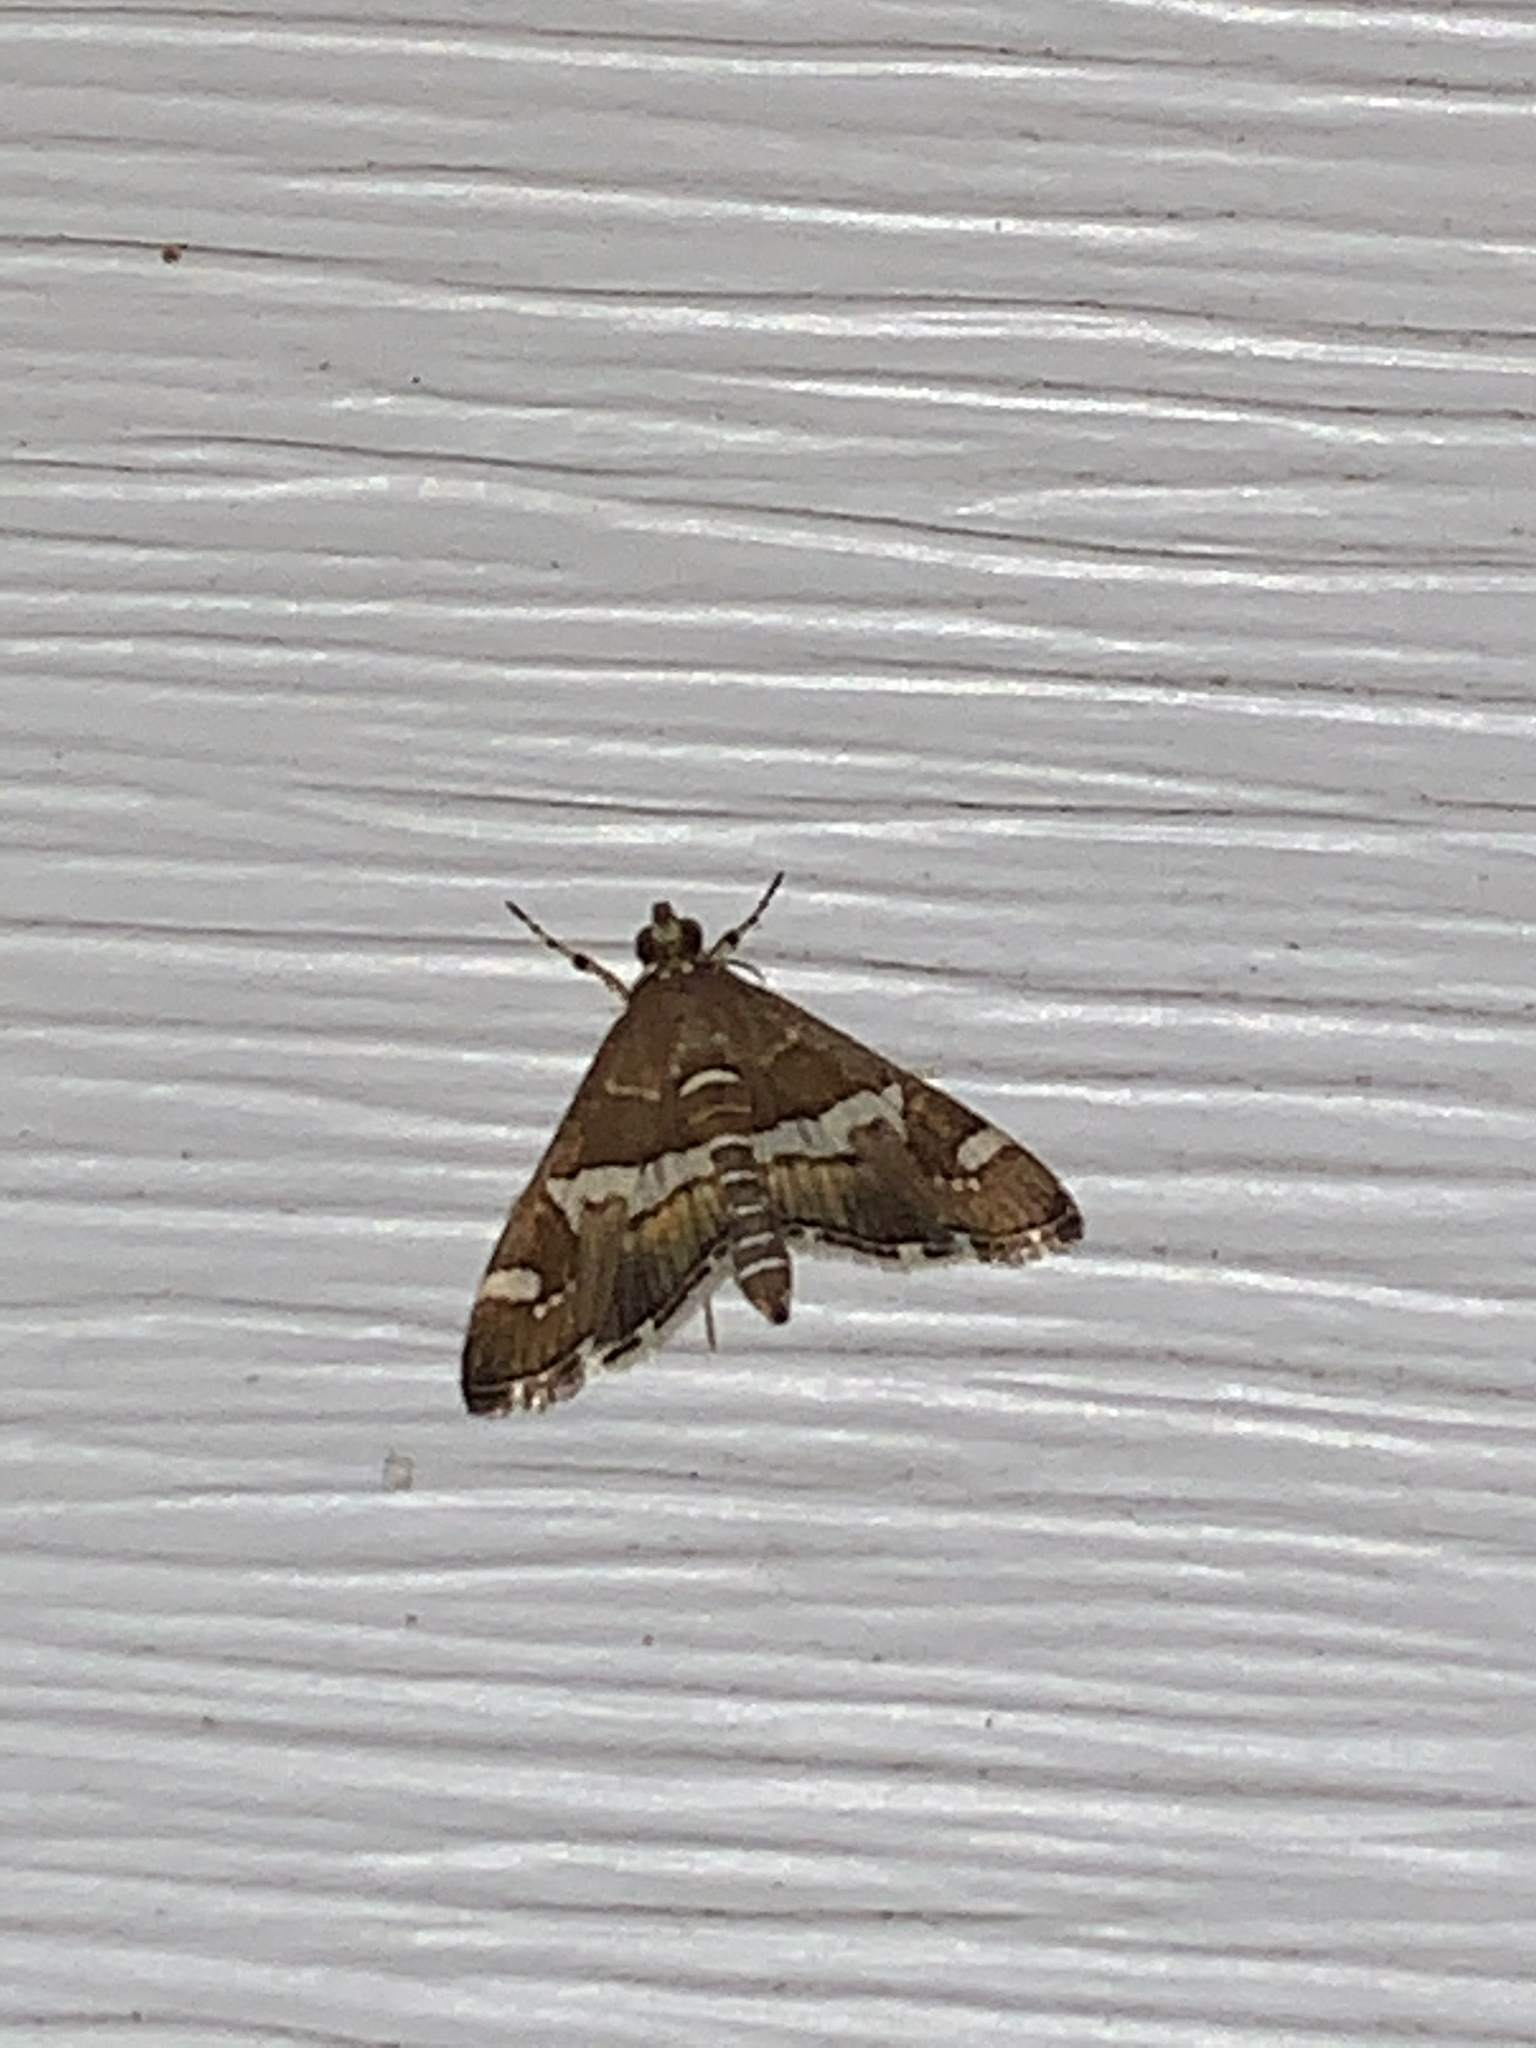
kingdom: Animalia
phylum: Arthropoda
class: Insecta
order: Lepidoptera
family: Crambidae
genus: Spoladea
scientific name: Spoladea recurvalis
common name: Beet webworm moth
